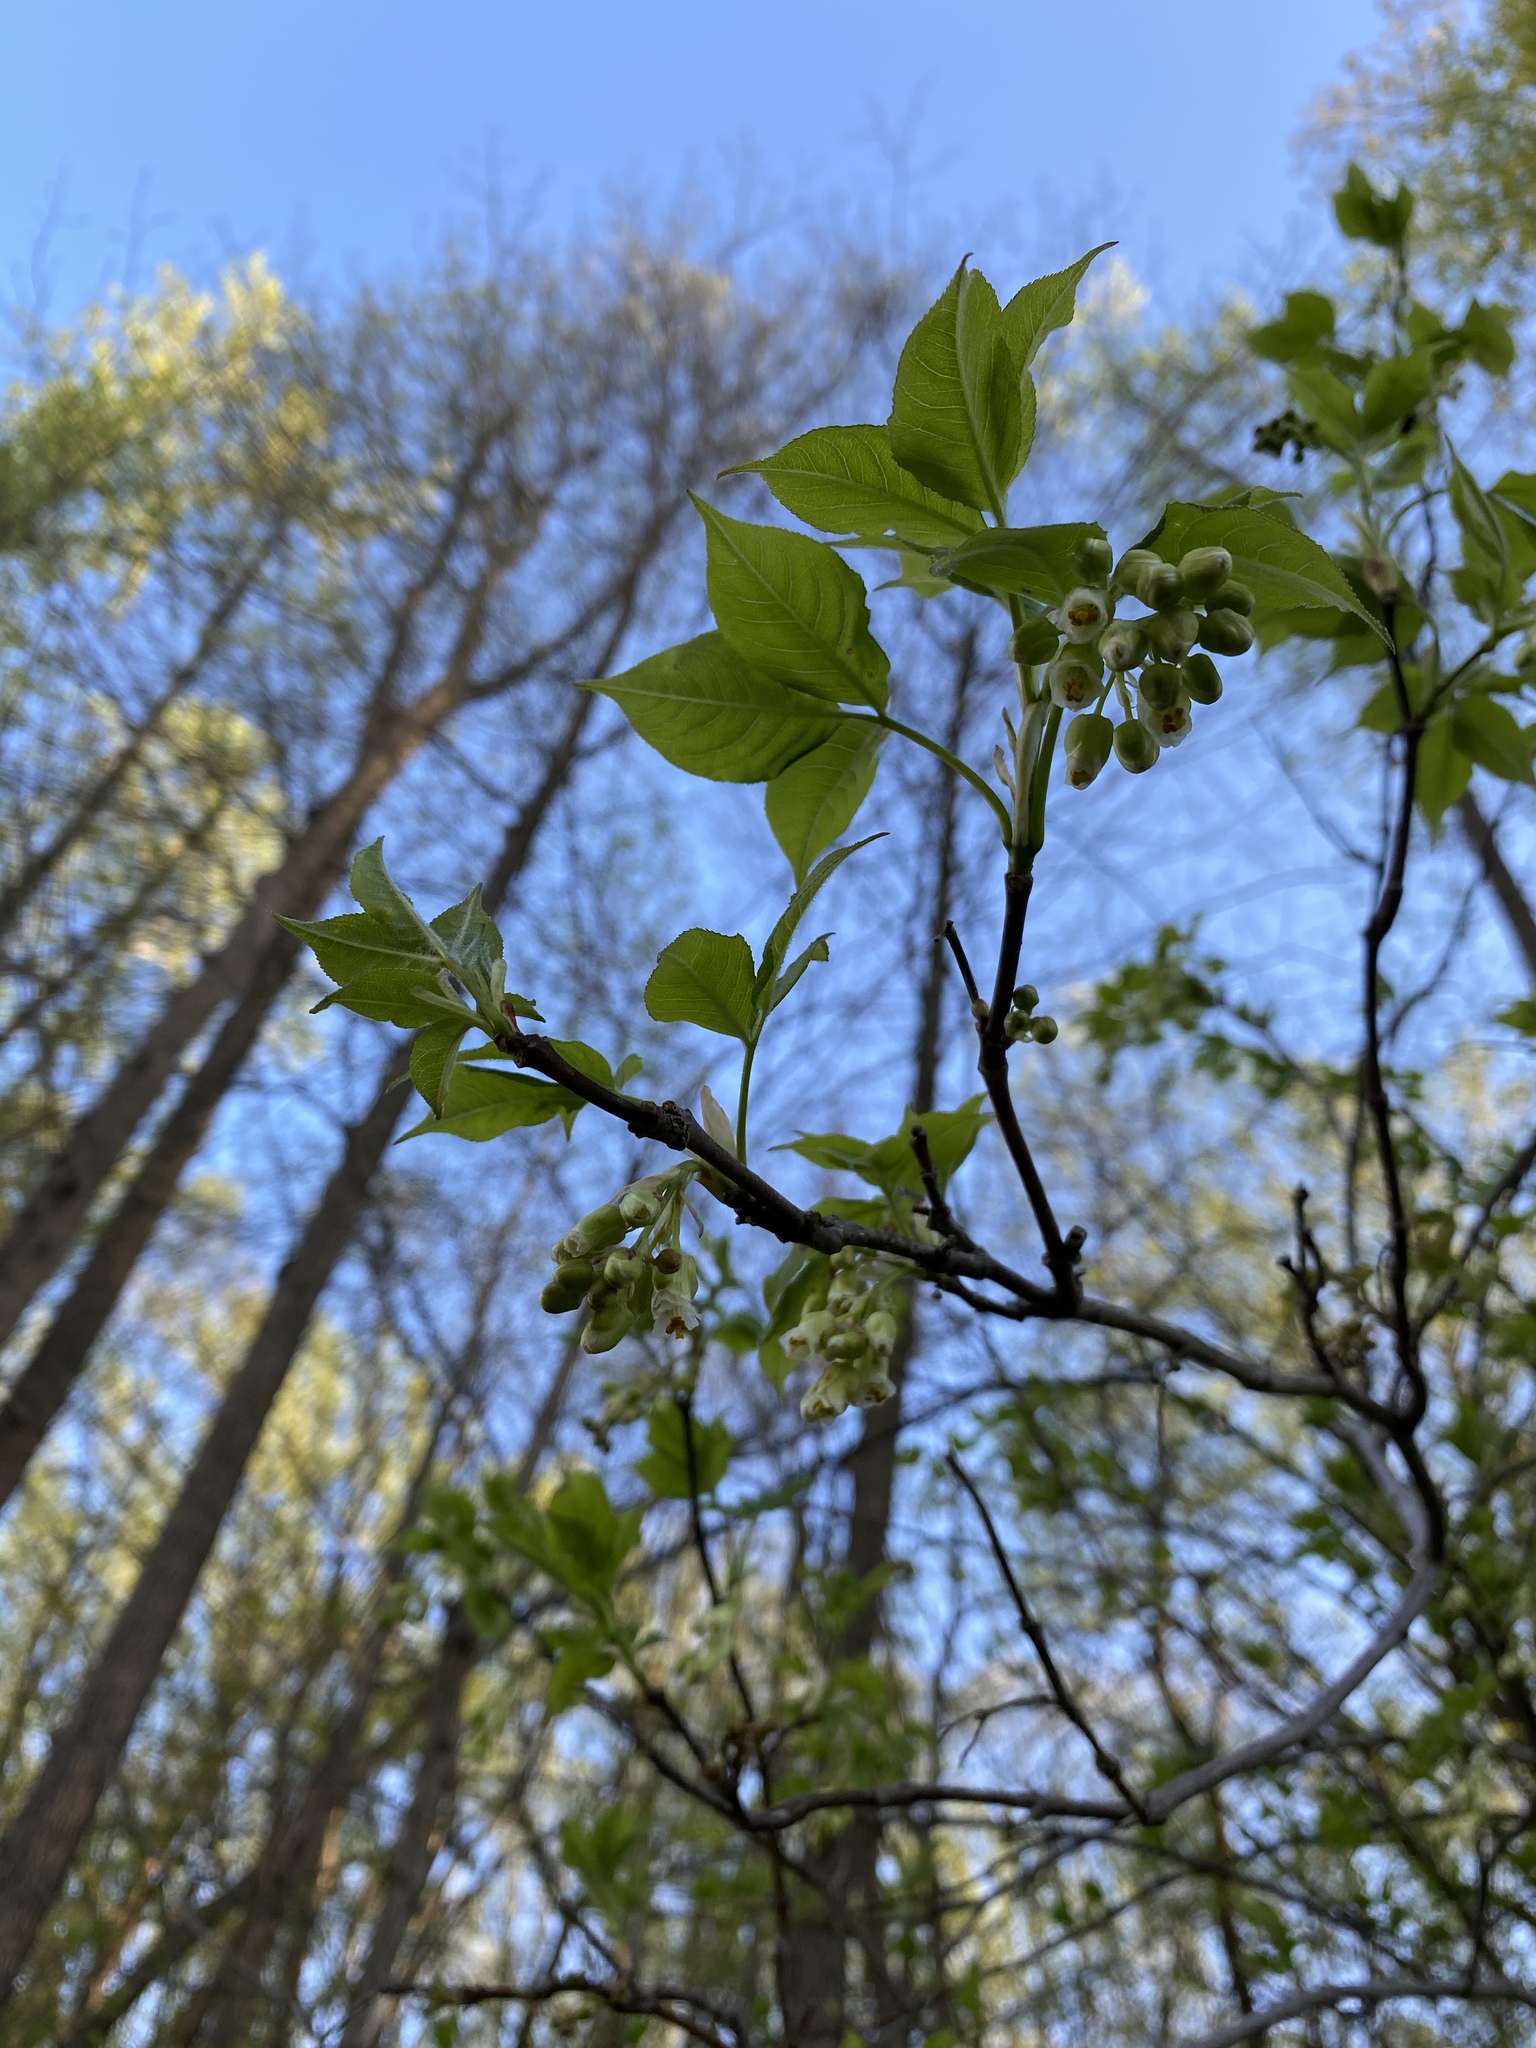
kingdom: Plantae
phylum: Tracheophyta
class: Magnoliopsida
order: Crossosomatales
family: Staphyleaceae
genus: Staphylea
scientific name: Staphylea trifolia
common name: American bladdernut
